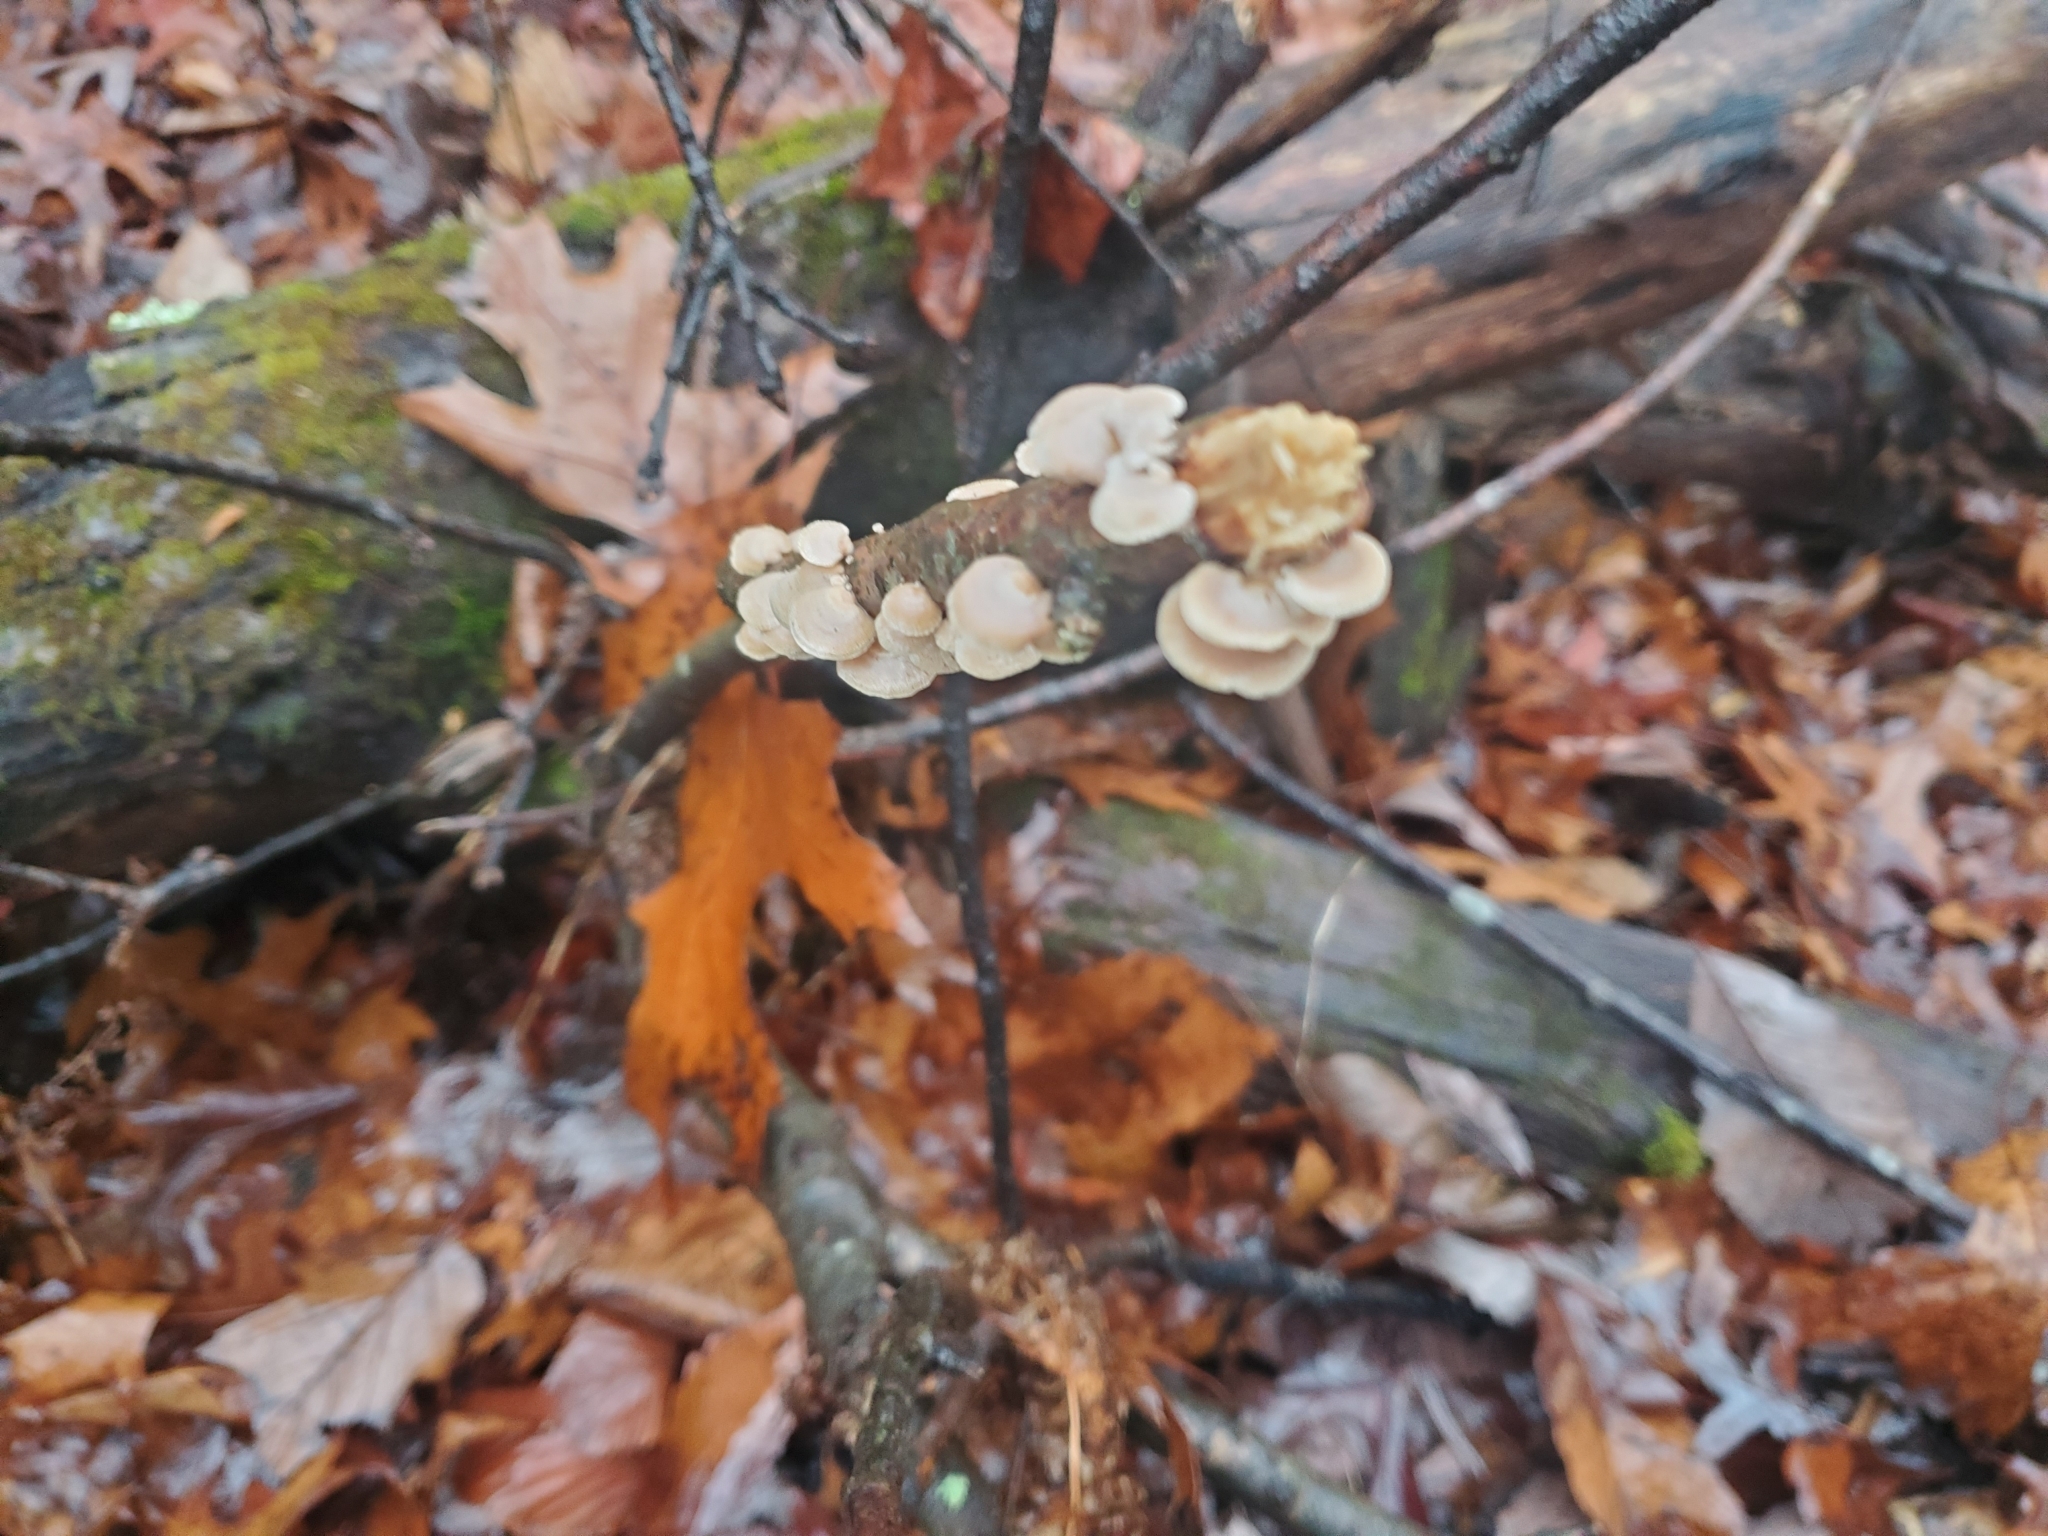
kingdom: Fungi
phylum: Basidiomycota
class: Agaricomycetes
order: Agaricales
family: Mycenaceae
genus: Panellus
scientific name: Panellus stipticus
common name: Bitter oysterling
